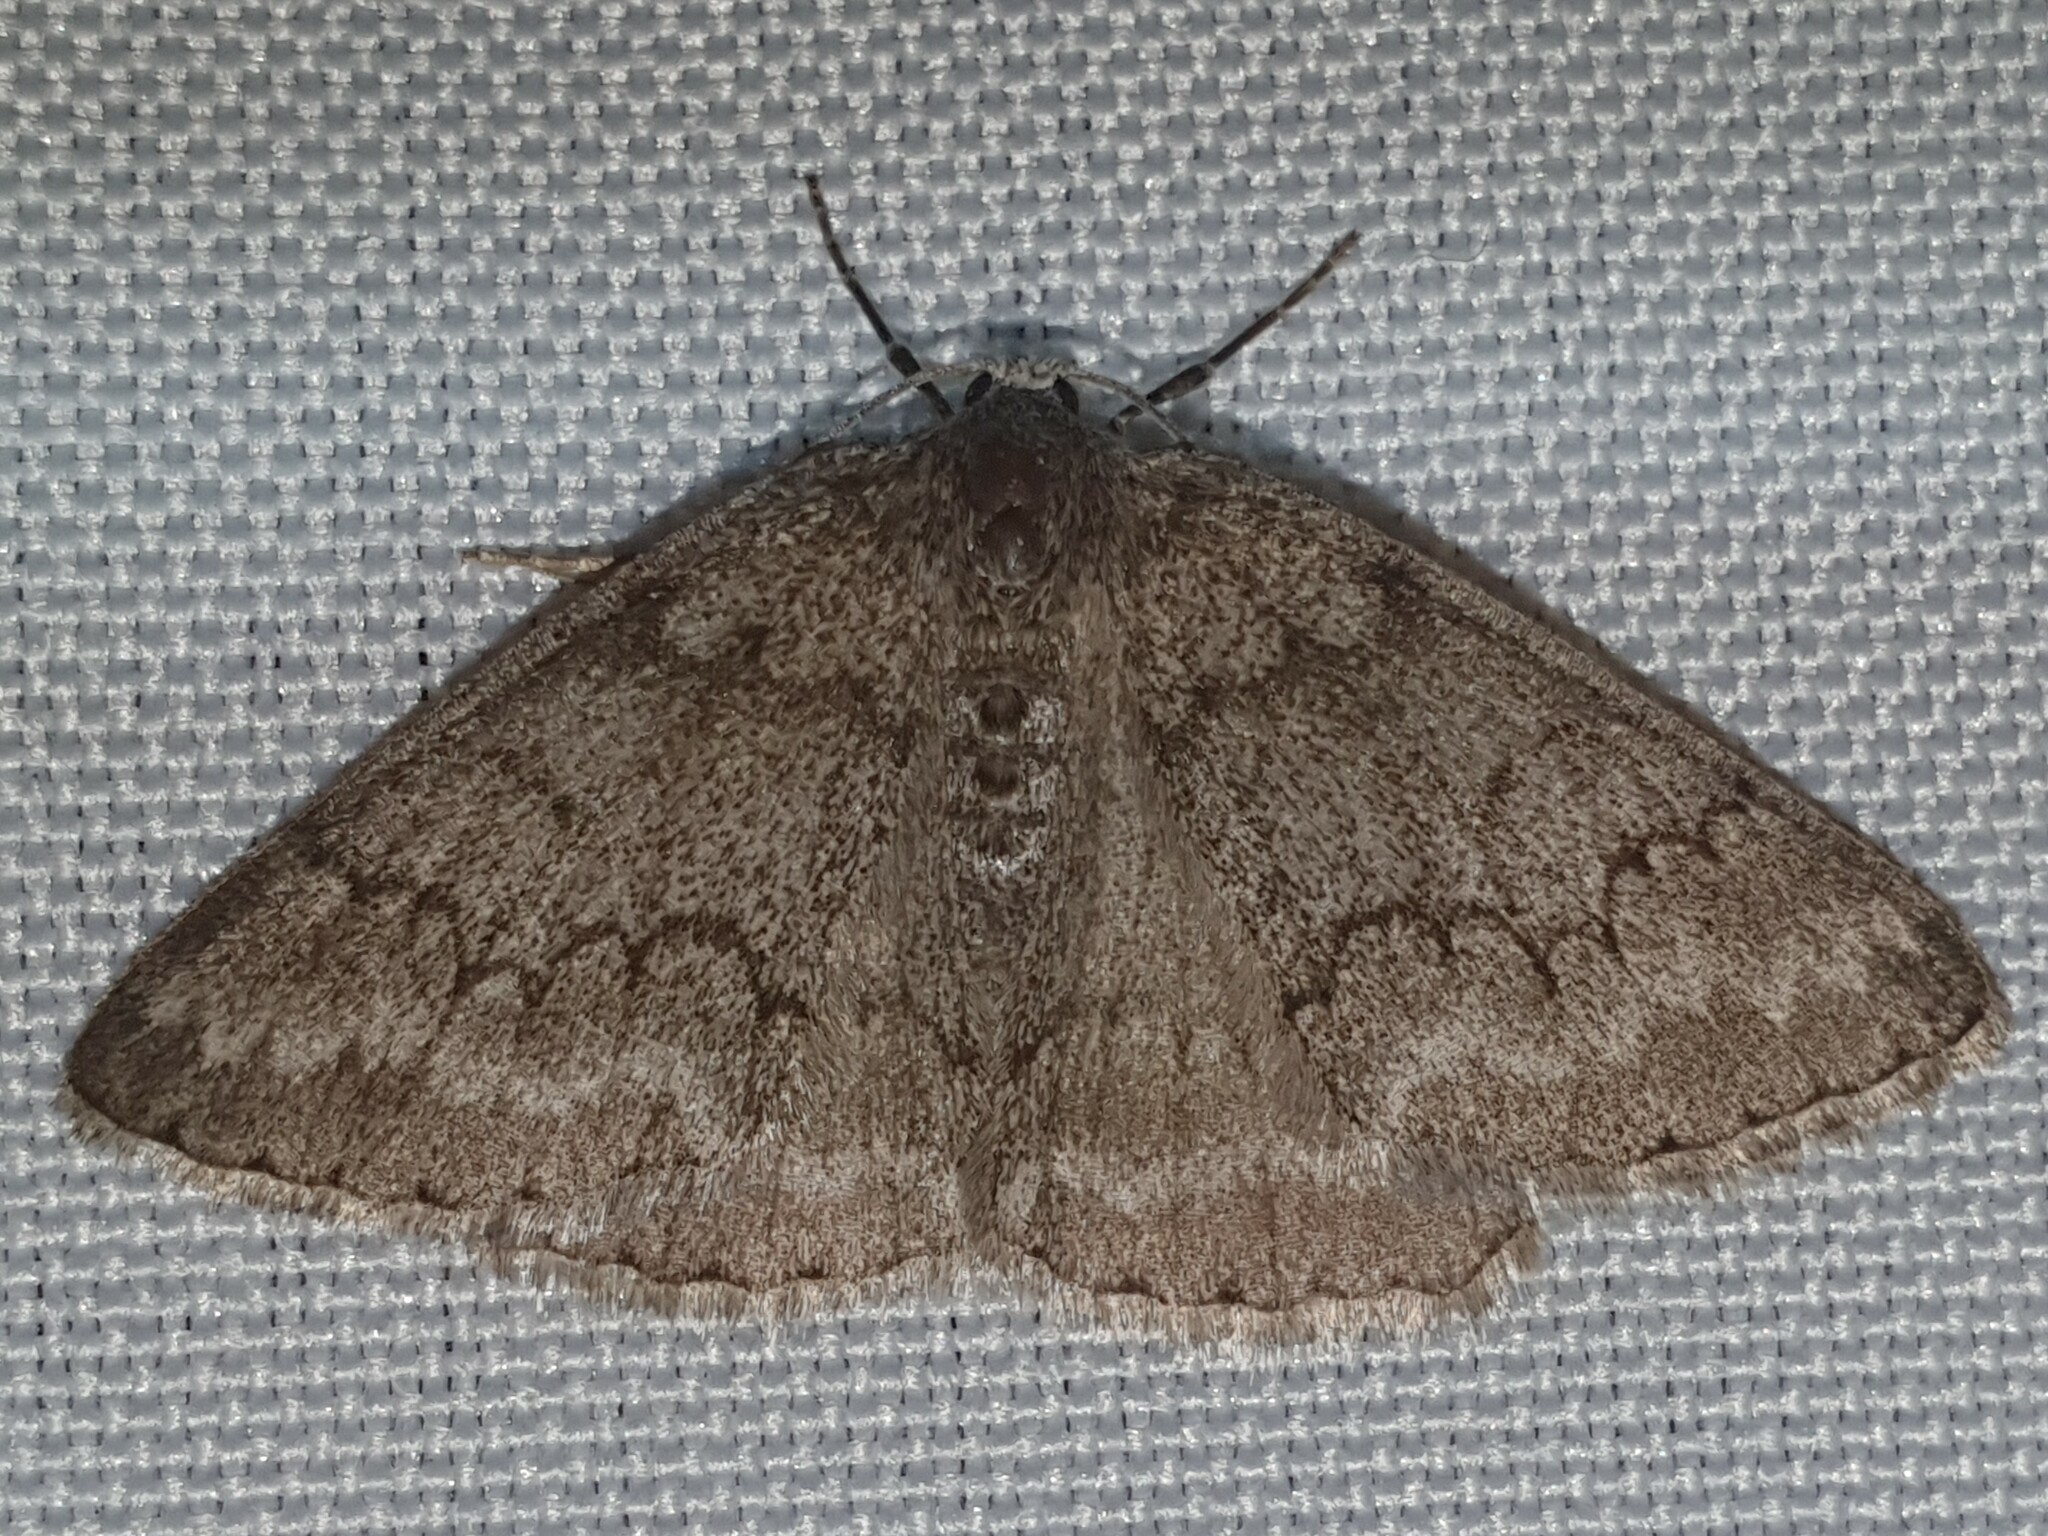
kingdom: Animalia
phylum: Arthropoda
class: Insecta
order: Lepidoptera
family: Geometridae
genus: Pseudoterpna
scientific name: Pseudoterpna coronillaria
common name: Jersey emerald
